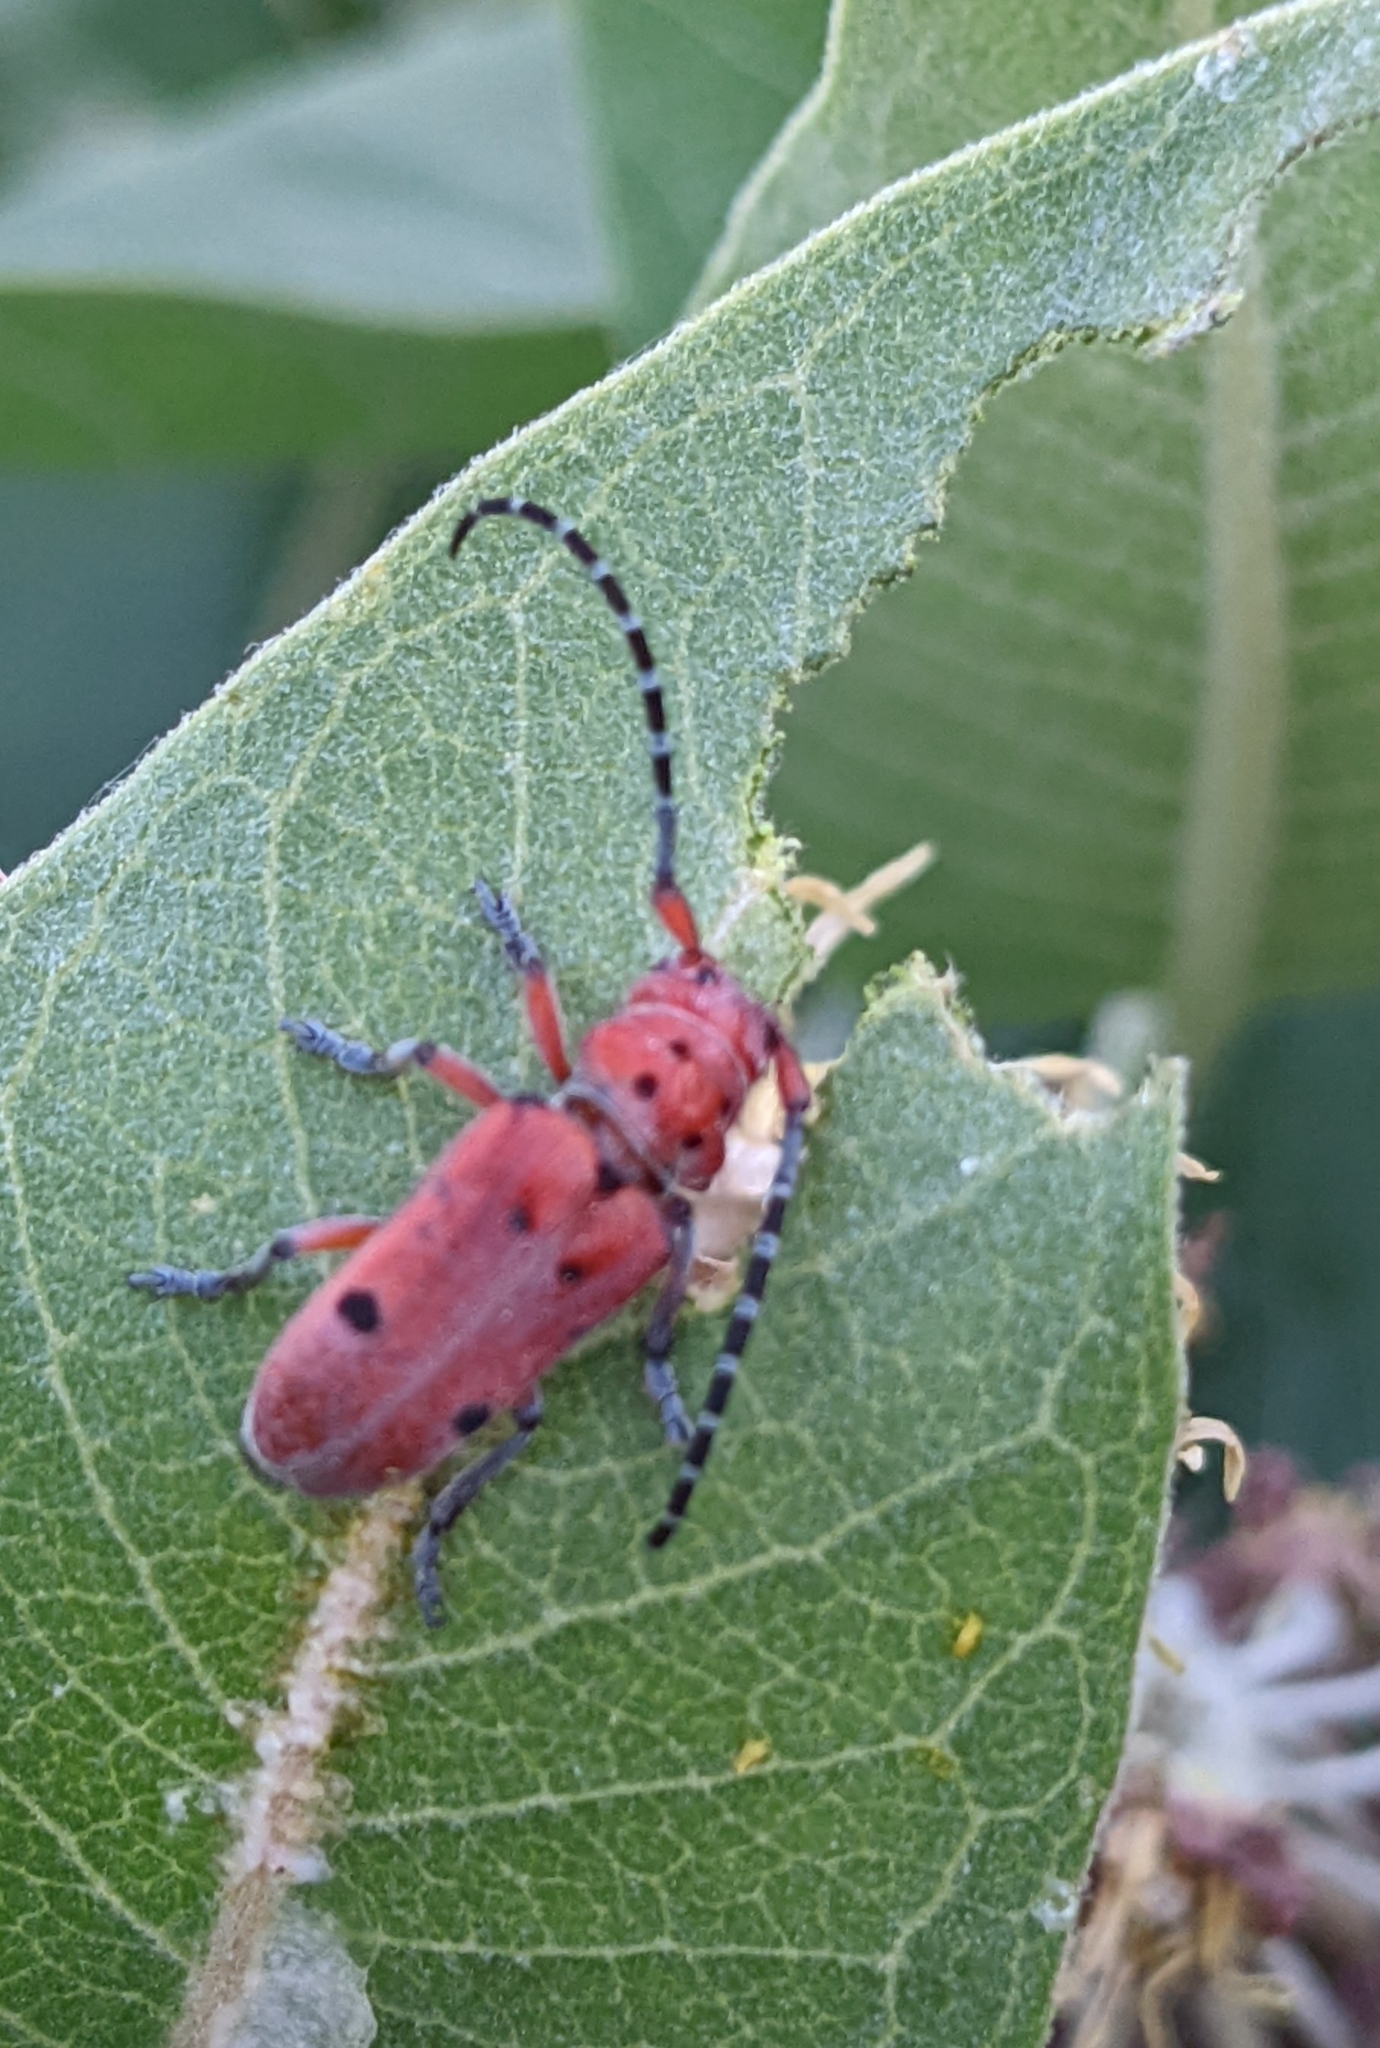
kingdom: Animalia
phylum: Arthropoda
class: Insecta
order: Coleoptera
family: Cerambycidae
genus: Tetraopes
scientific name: Tetraopes femoratus
